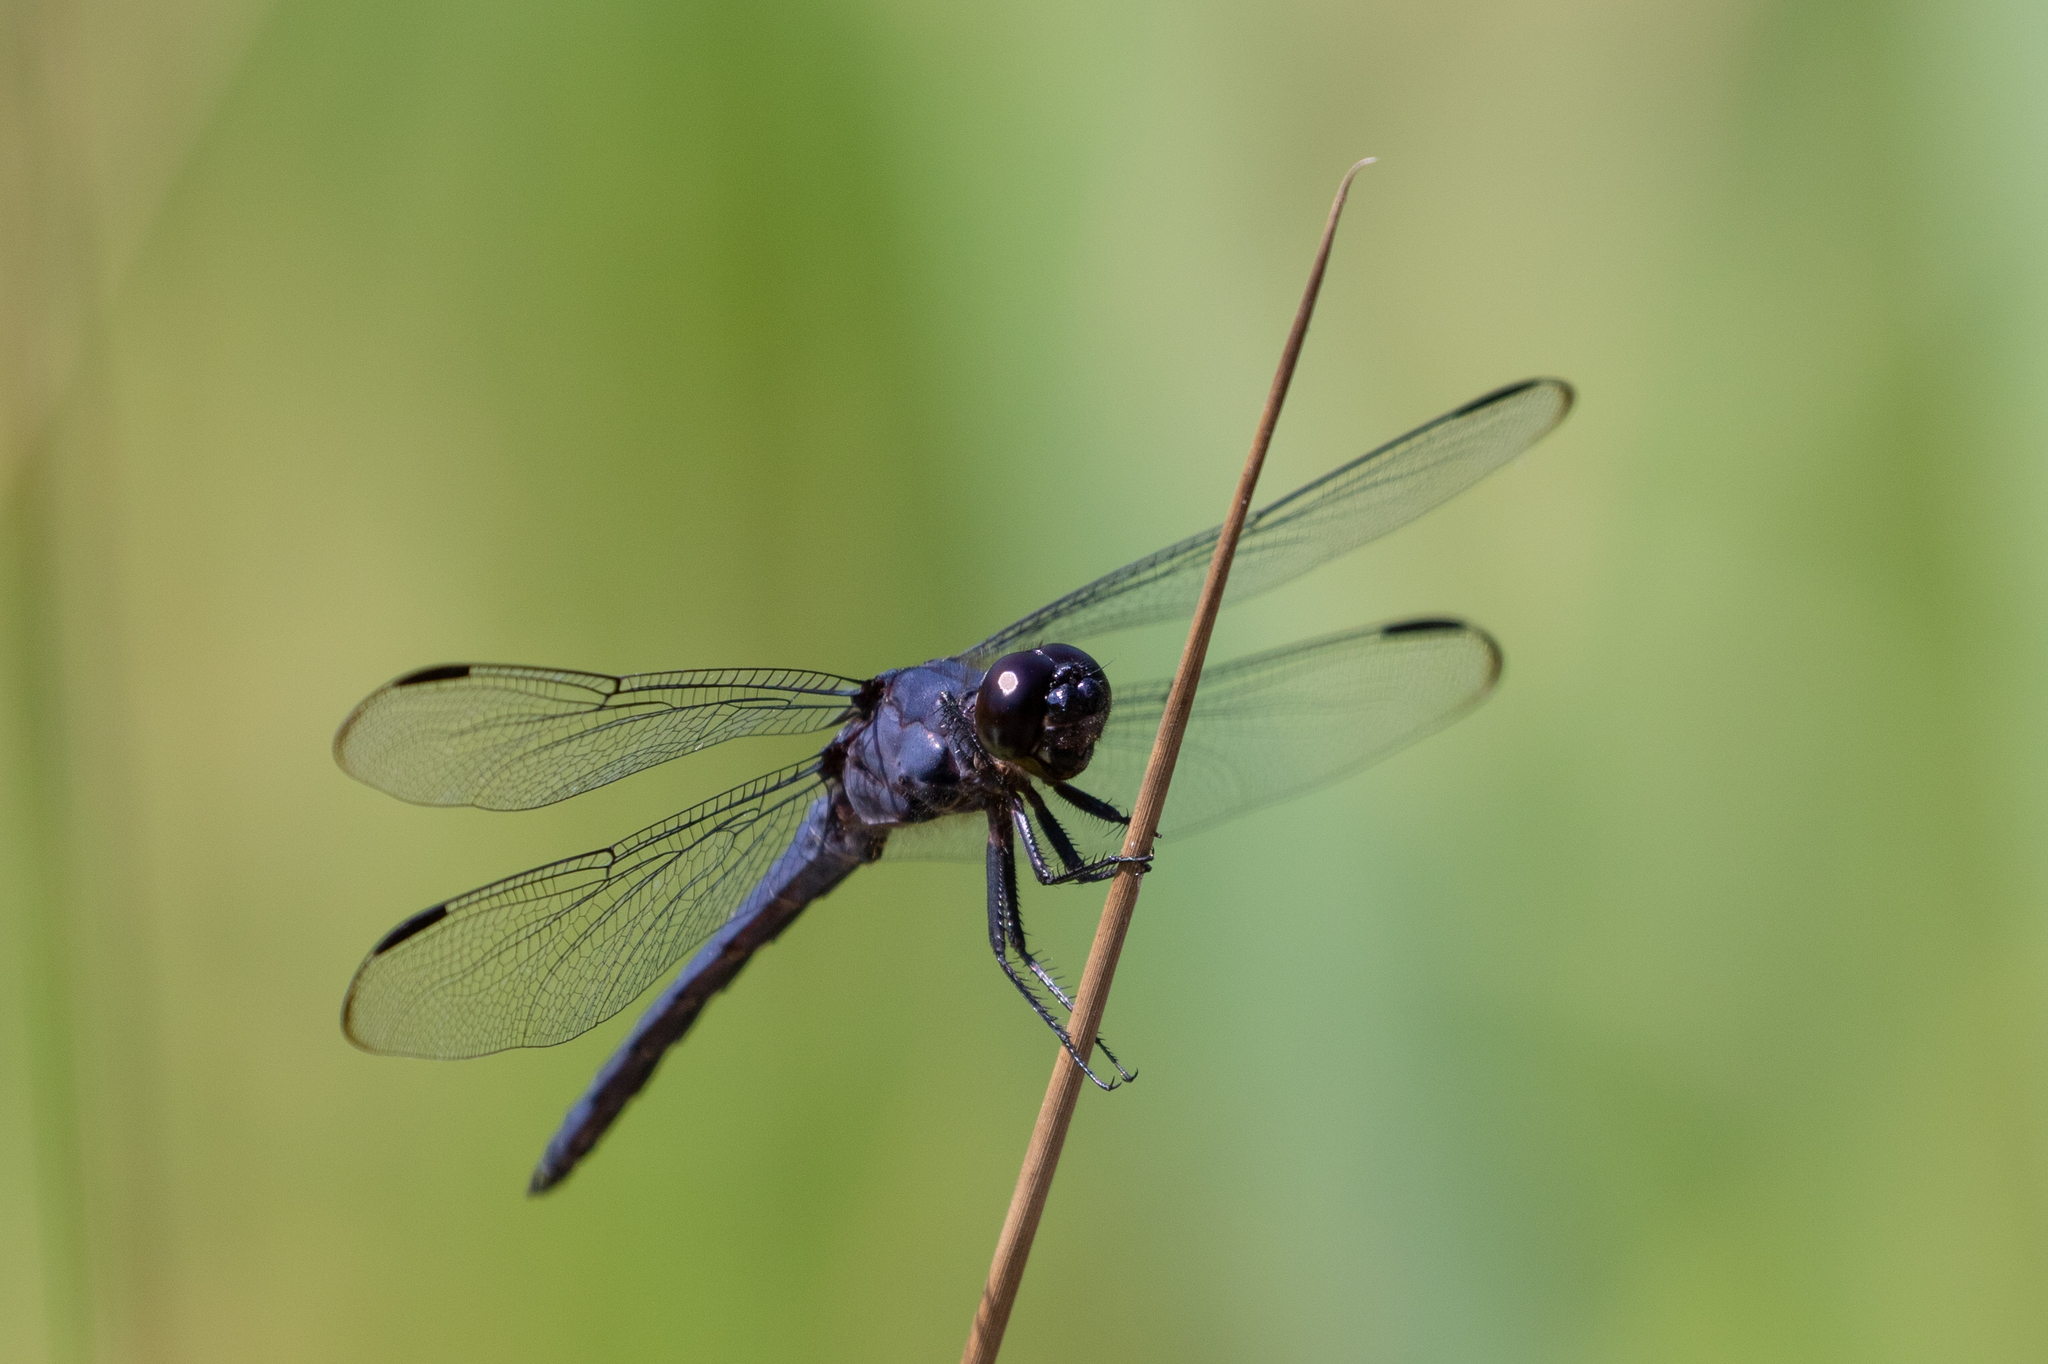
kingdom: Animalia
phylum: Arthropoda
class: Insecta
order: Odonata
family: Libellulidae
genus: Libellula
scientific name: Libellula incesta
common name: Slaty skimmer
